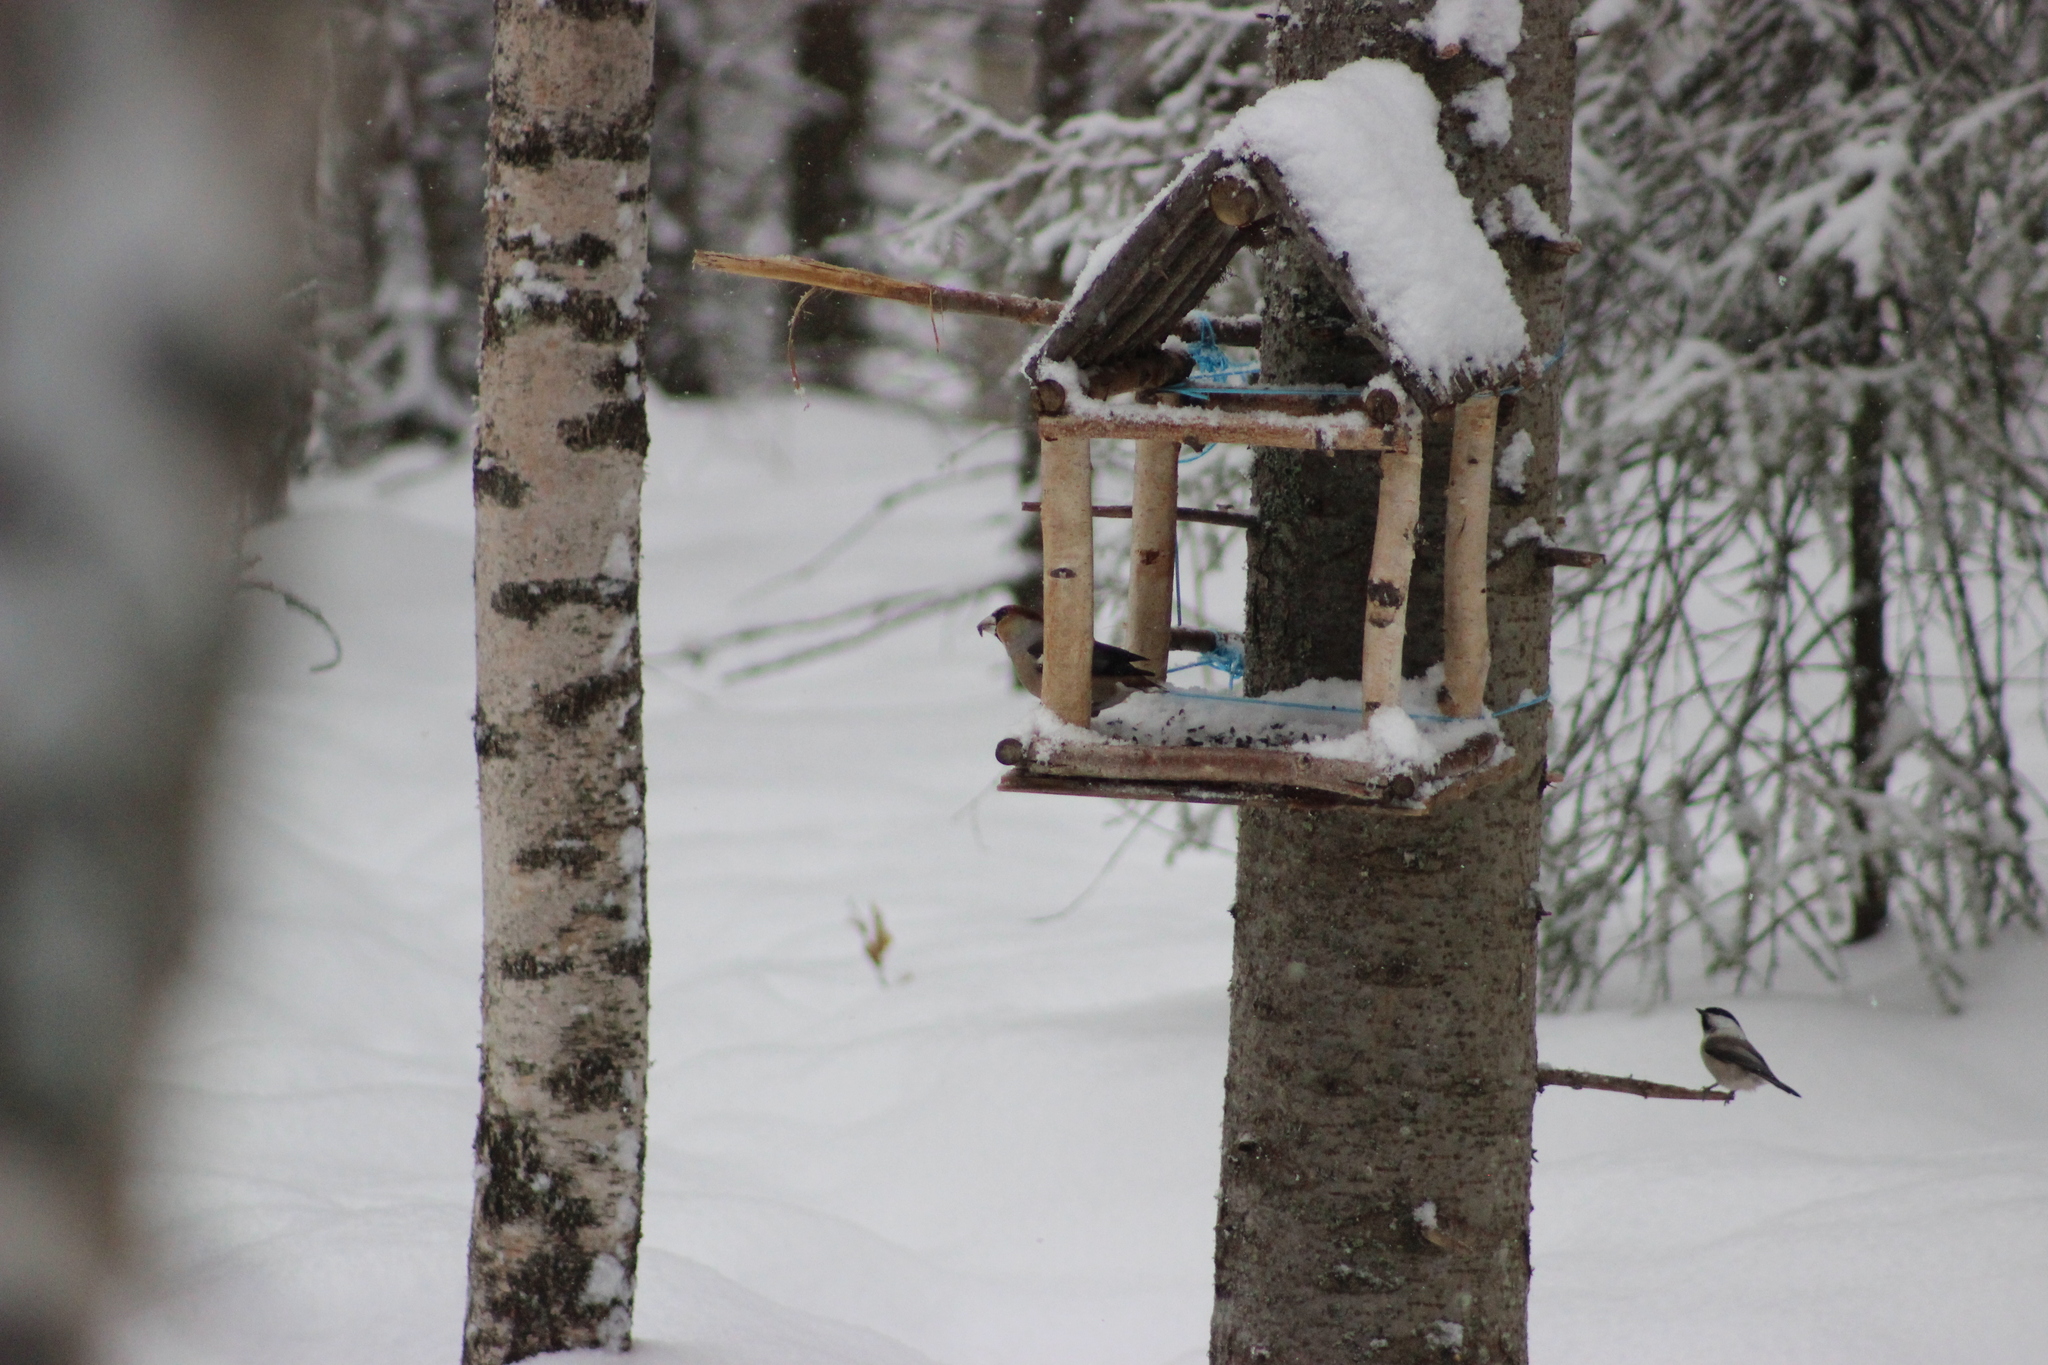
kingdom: Animalia
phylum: Chordata
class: Aves
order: Passeriformes
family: Fringillidae
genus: Coccothraustes
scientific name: Coccothraustes coccothraustes
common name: Hawfinch
